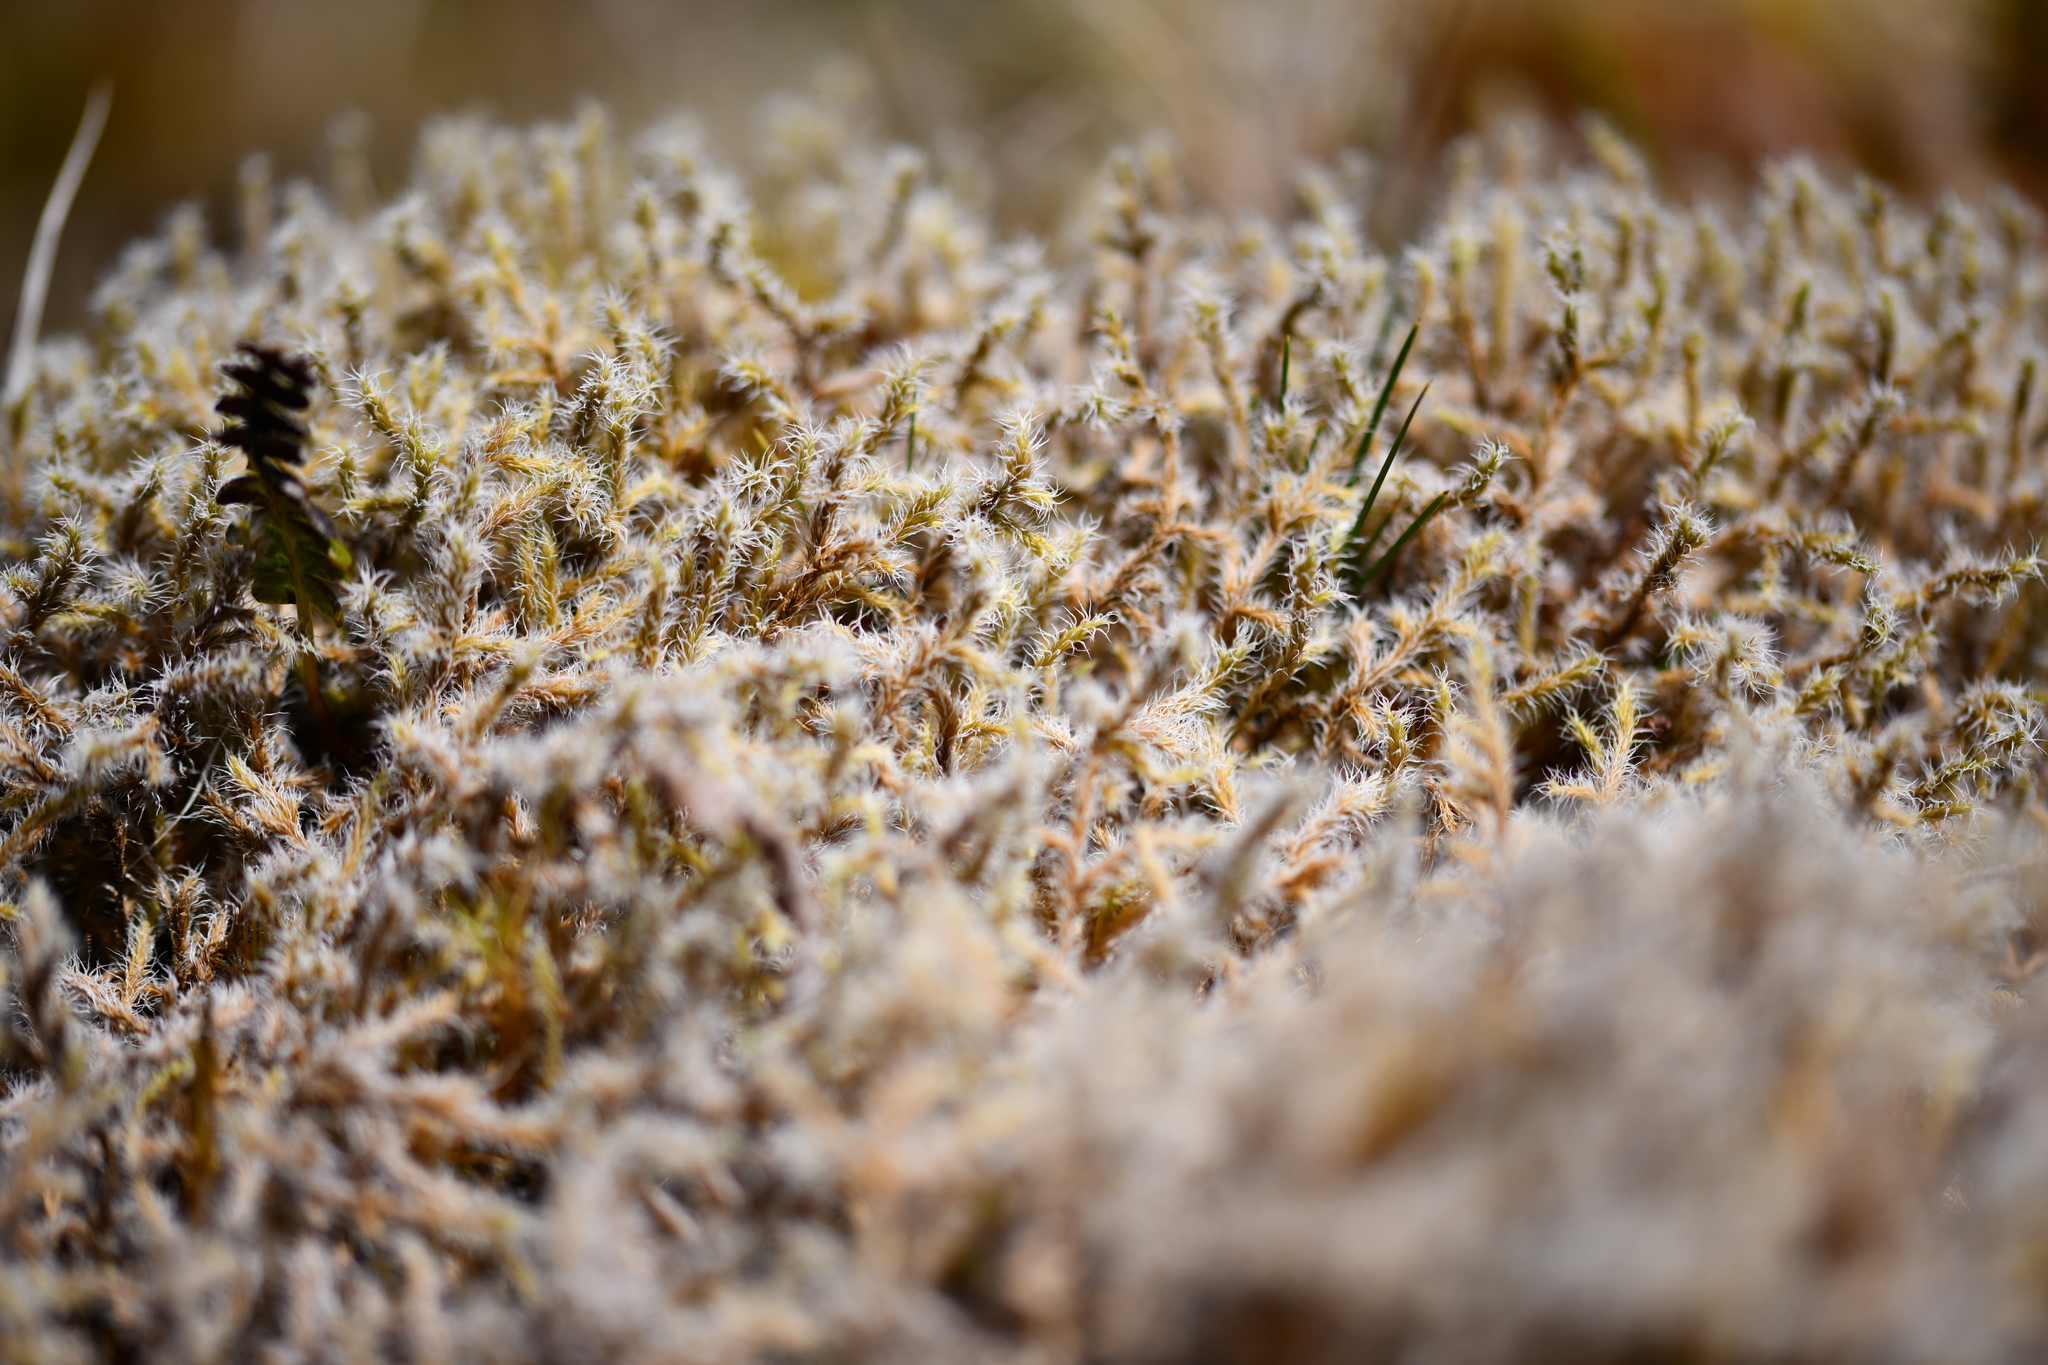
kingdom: Plantae
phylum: Bryophyta
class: Bryopsida
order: Grimmiales
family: Grimmiaceae
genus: Racomitrium
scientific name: Racomitrium lanuginosum
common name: Hoary rock moss
